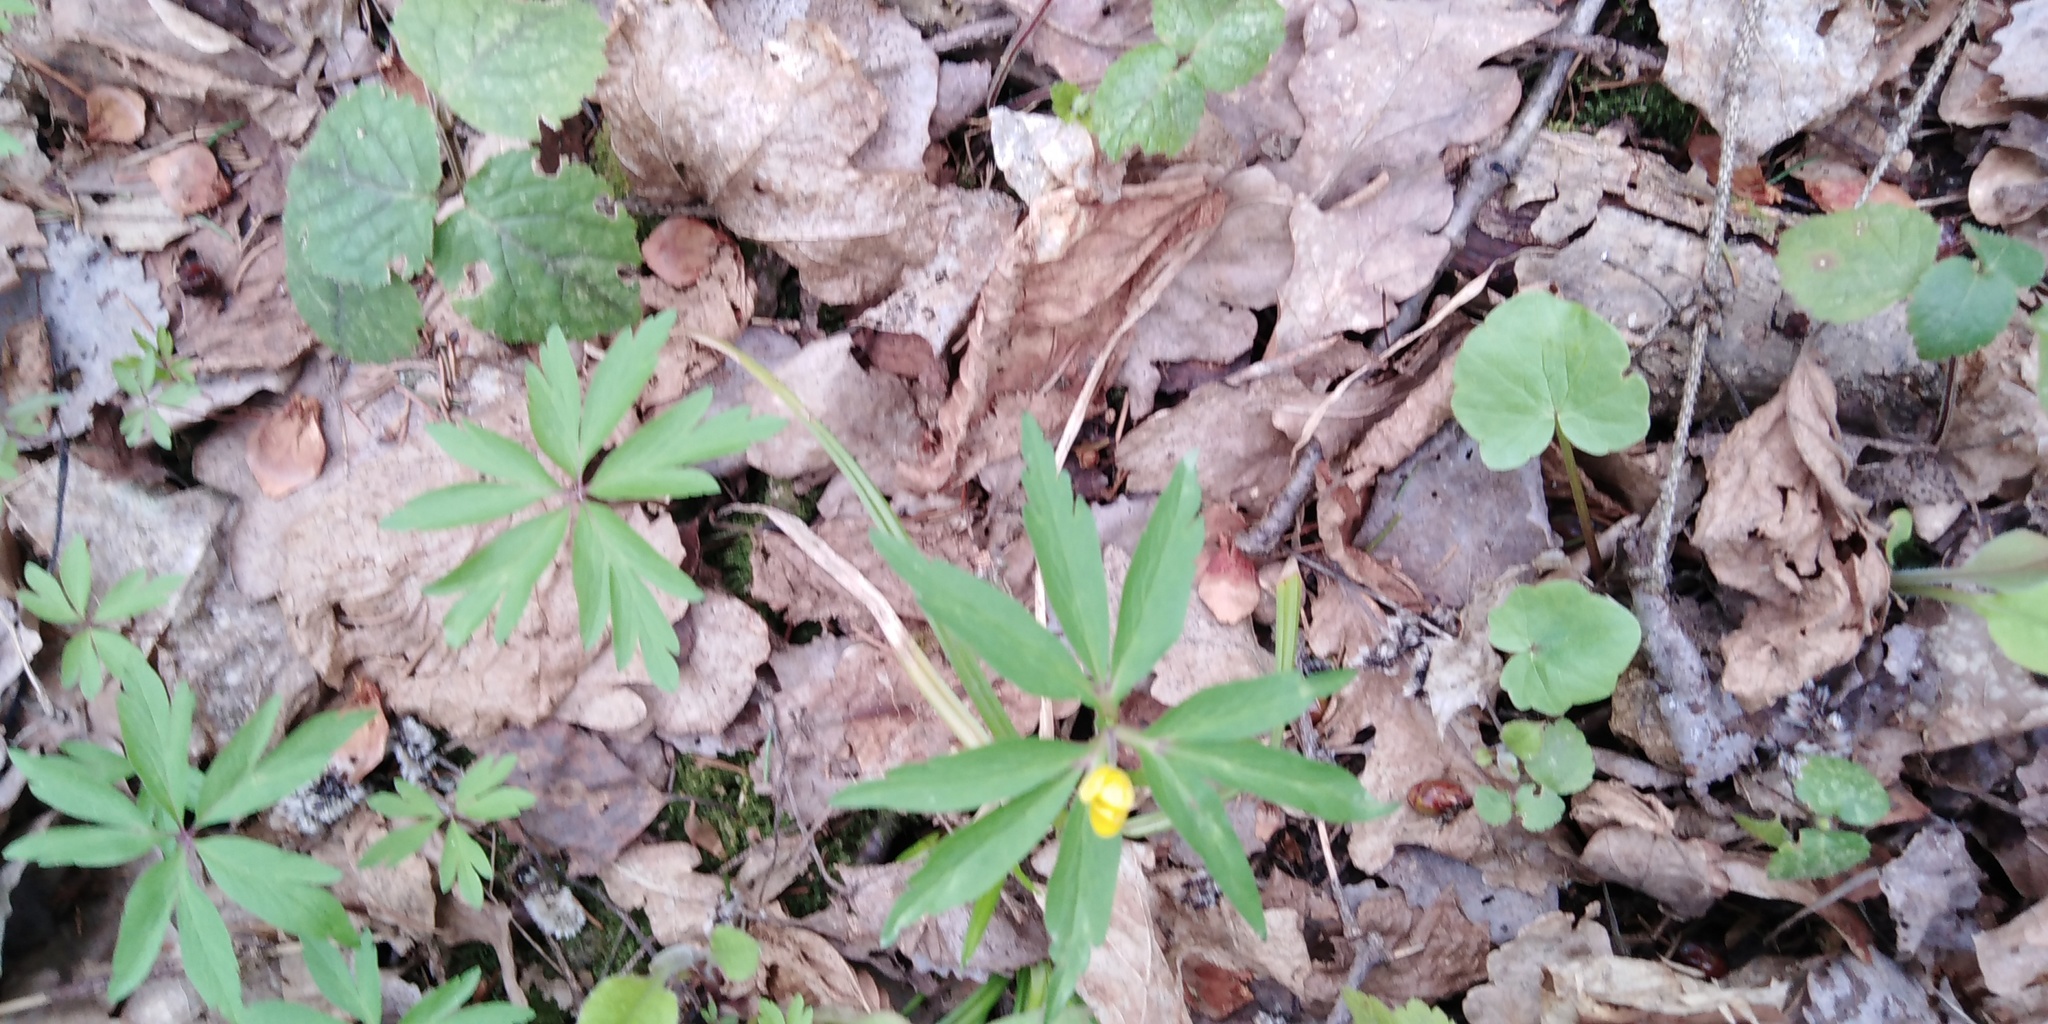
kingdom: Plantae
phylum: Tracheophyta
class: Magnoliopsida
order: Ranunculales
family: Ranunculaceae
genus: Anemone
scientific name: Anemone ranunculoides
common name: Yellow anemone
